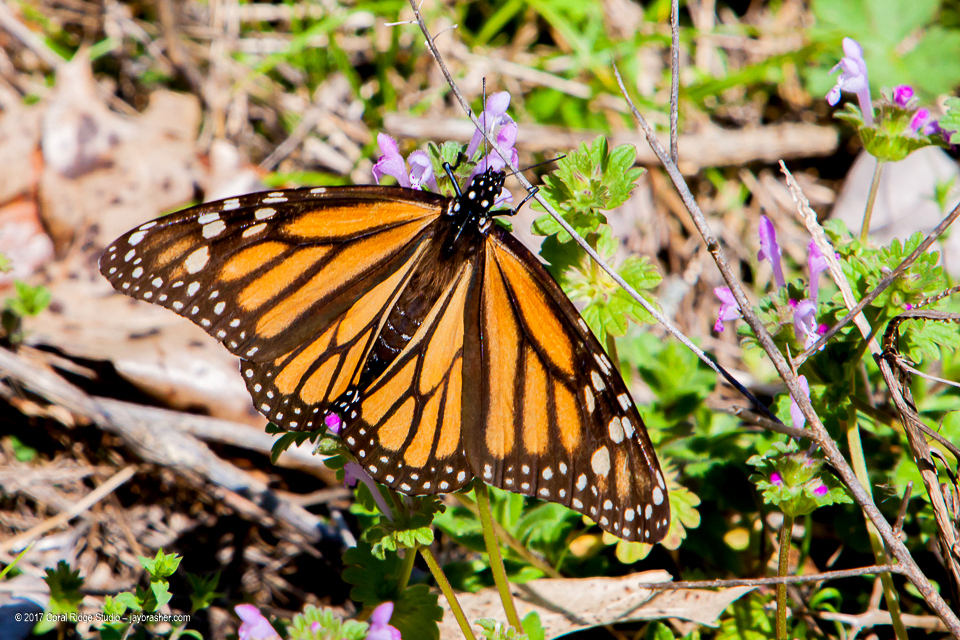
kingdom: Animalia
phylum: Arthropoda
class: Insecta
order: Lepidoptera
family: Nymphalidae
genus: Danaus
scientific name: Danaus plexippus
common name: Monarch
